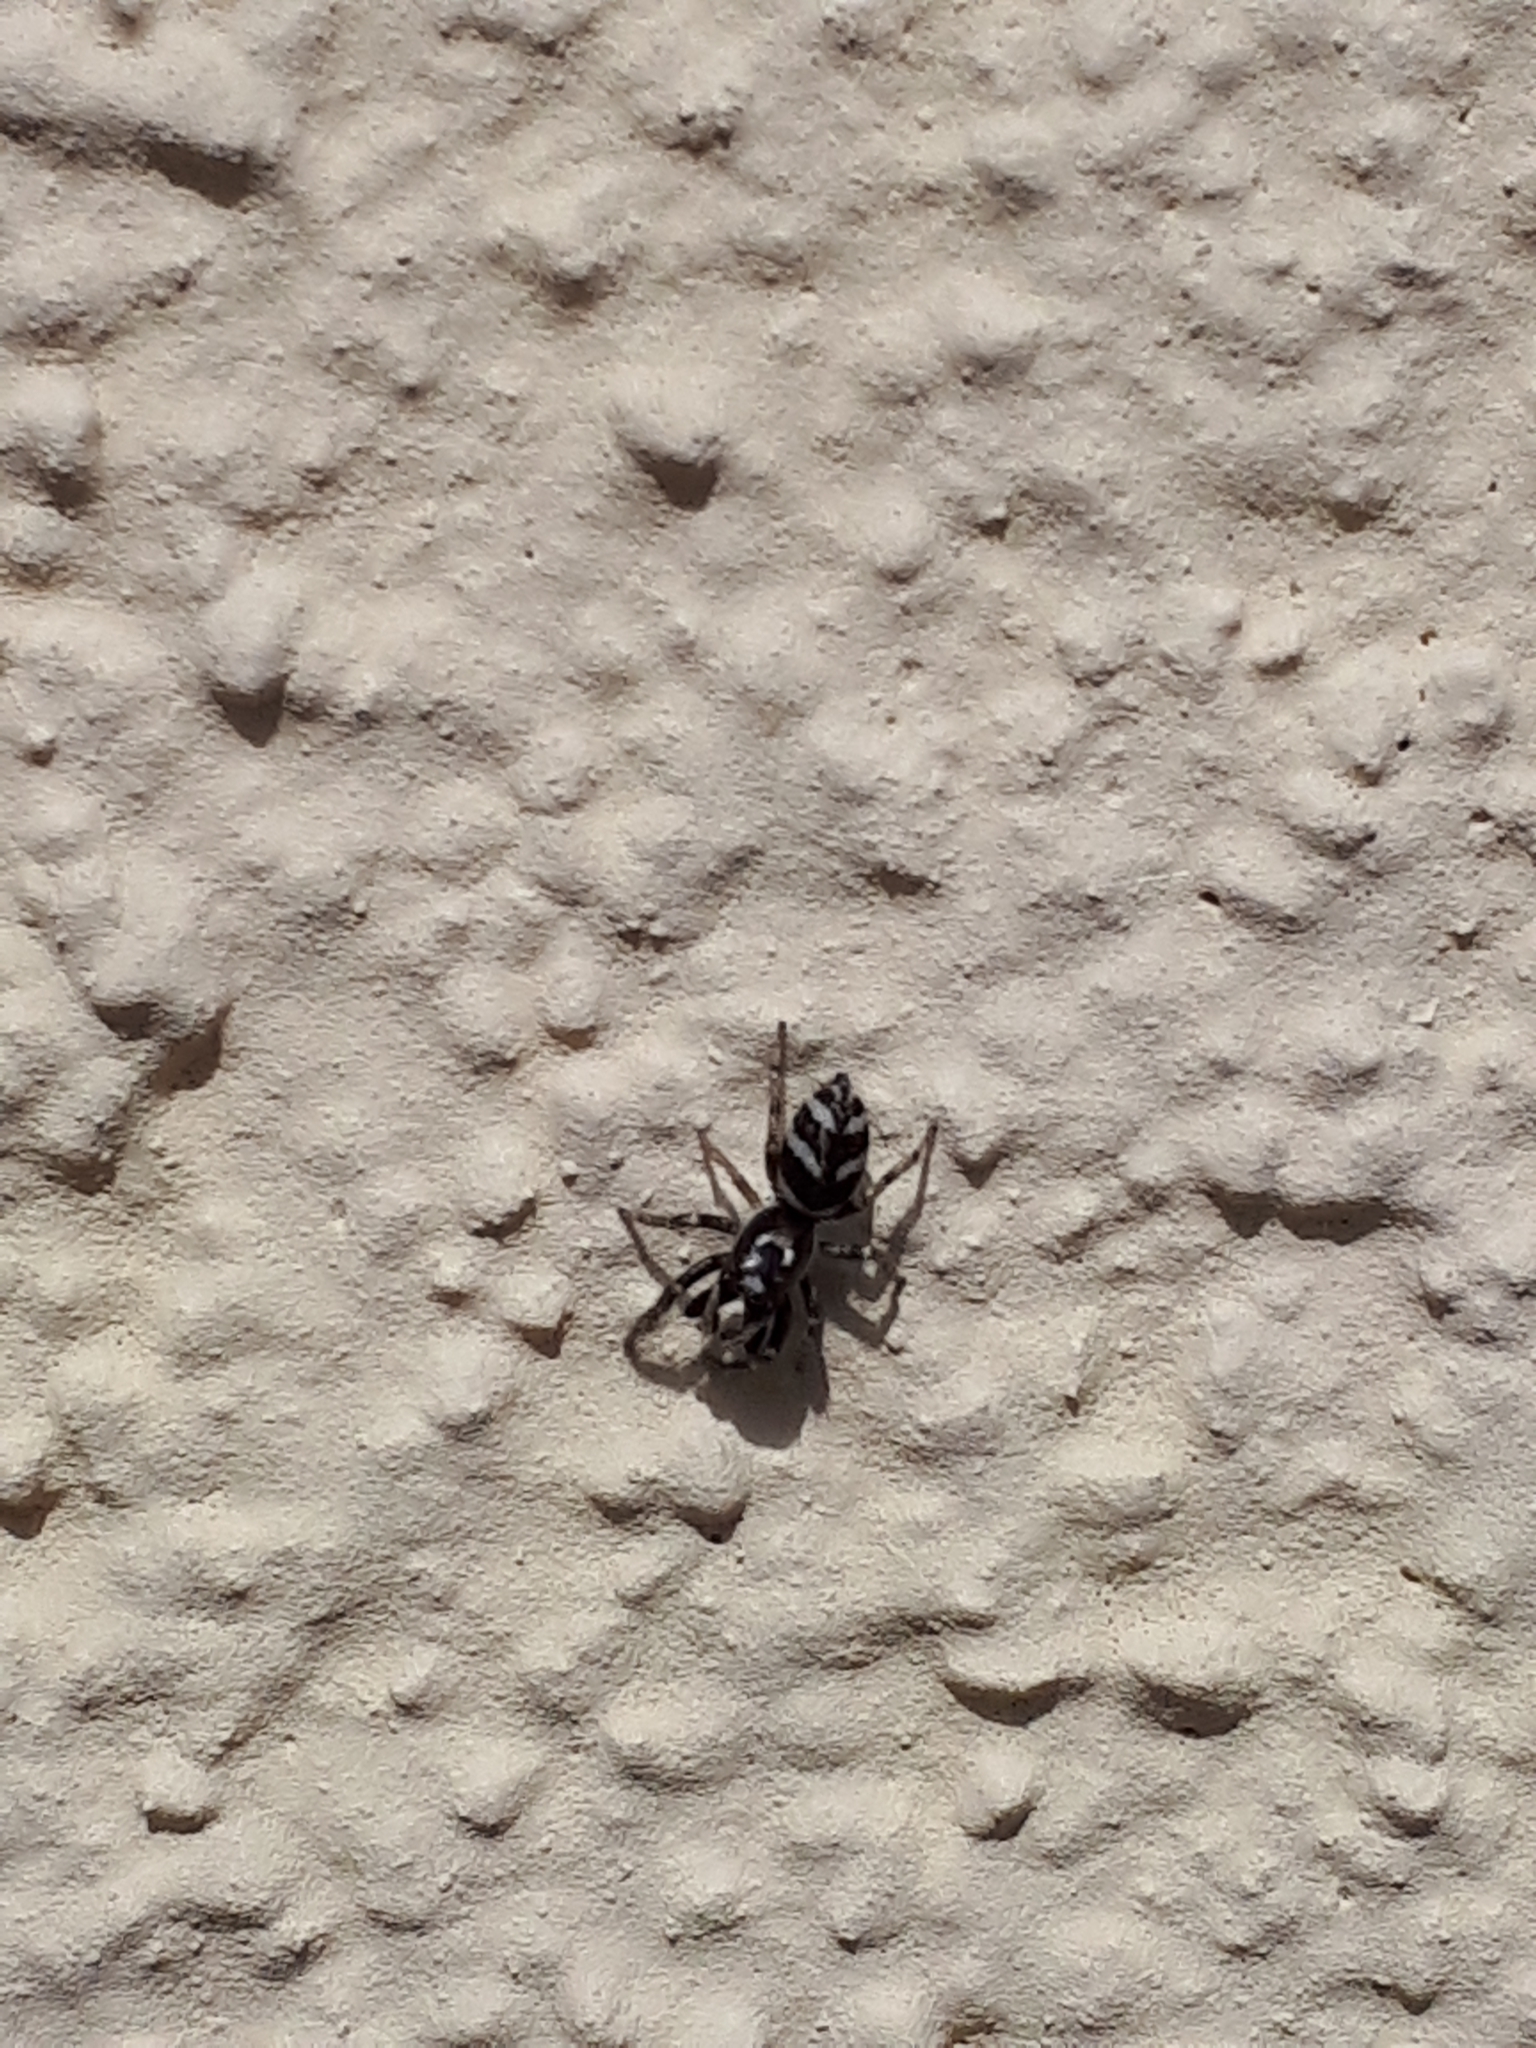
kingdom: Animalia
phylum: Arthropoda
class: Arachnida
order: Araneae
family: Salticidae
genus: Salticus
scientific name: Salticus scenicus
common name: Zebra jumper
